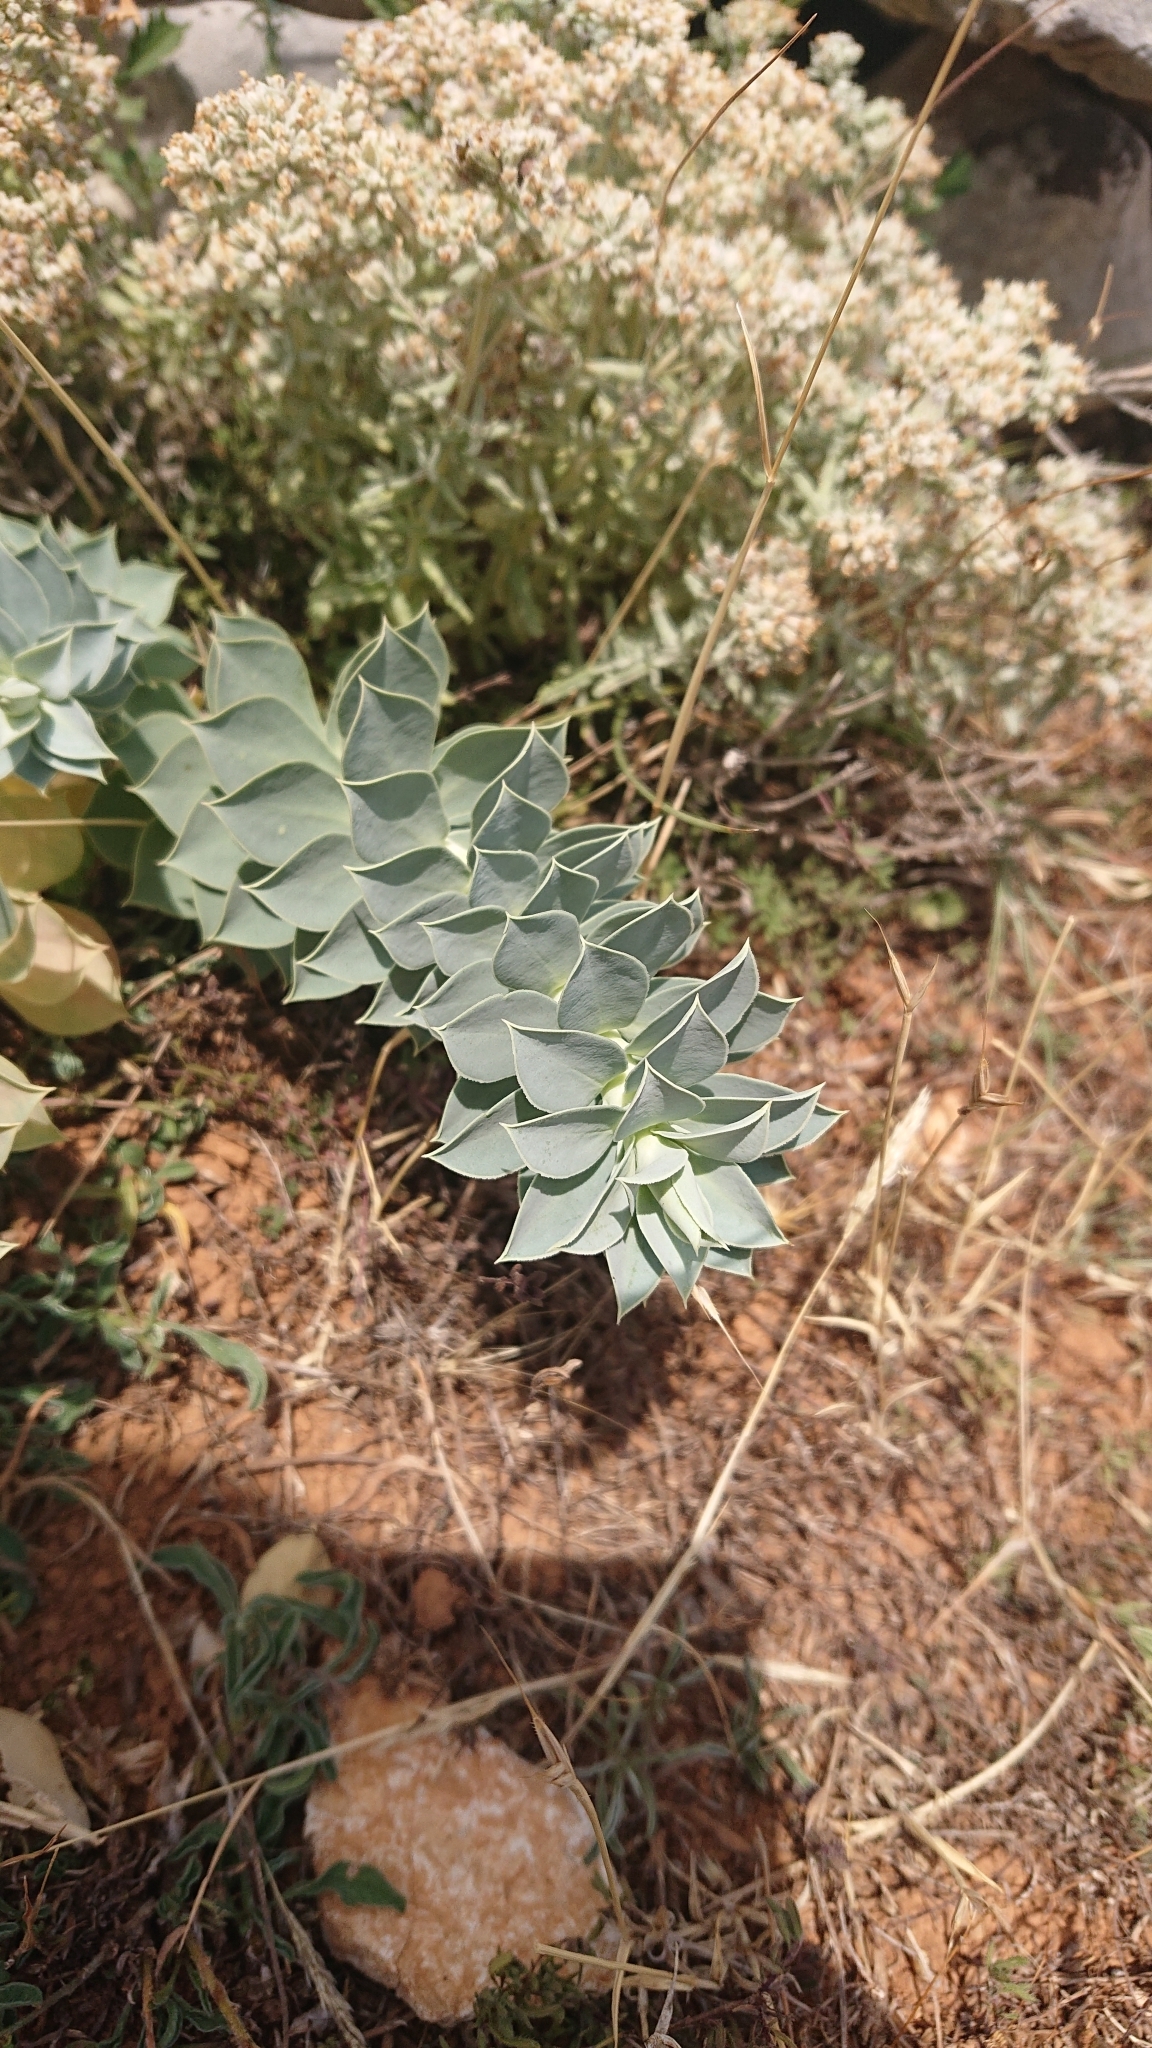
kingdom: Plantae
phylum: Tracheophyta
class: Magnoliopsida
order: Malpighiales
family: Euphorbiaceae
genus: Euphorbia
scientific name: Euphorbia myrsinites
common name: Myrtle spurge
